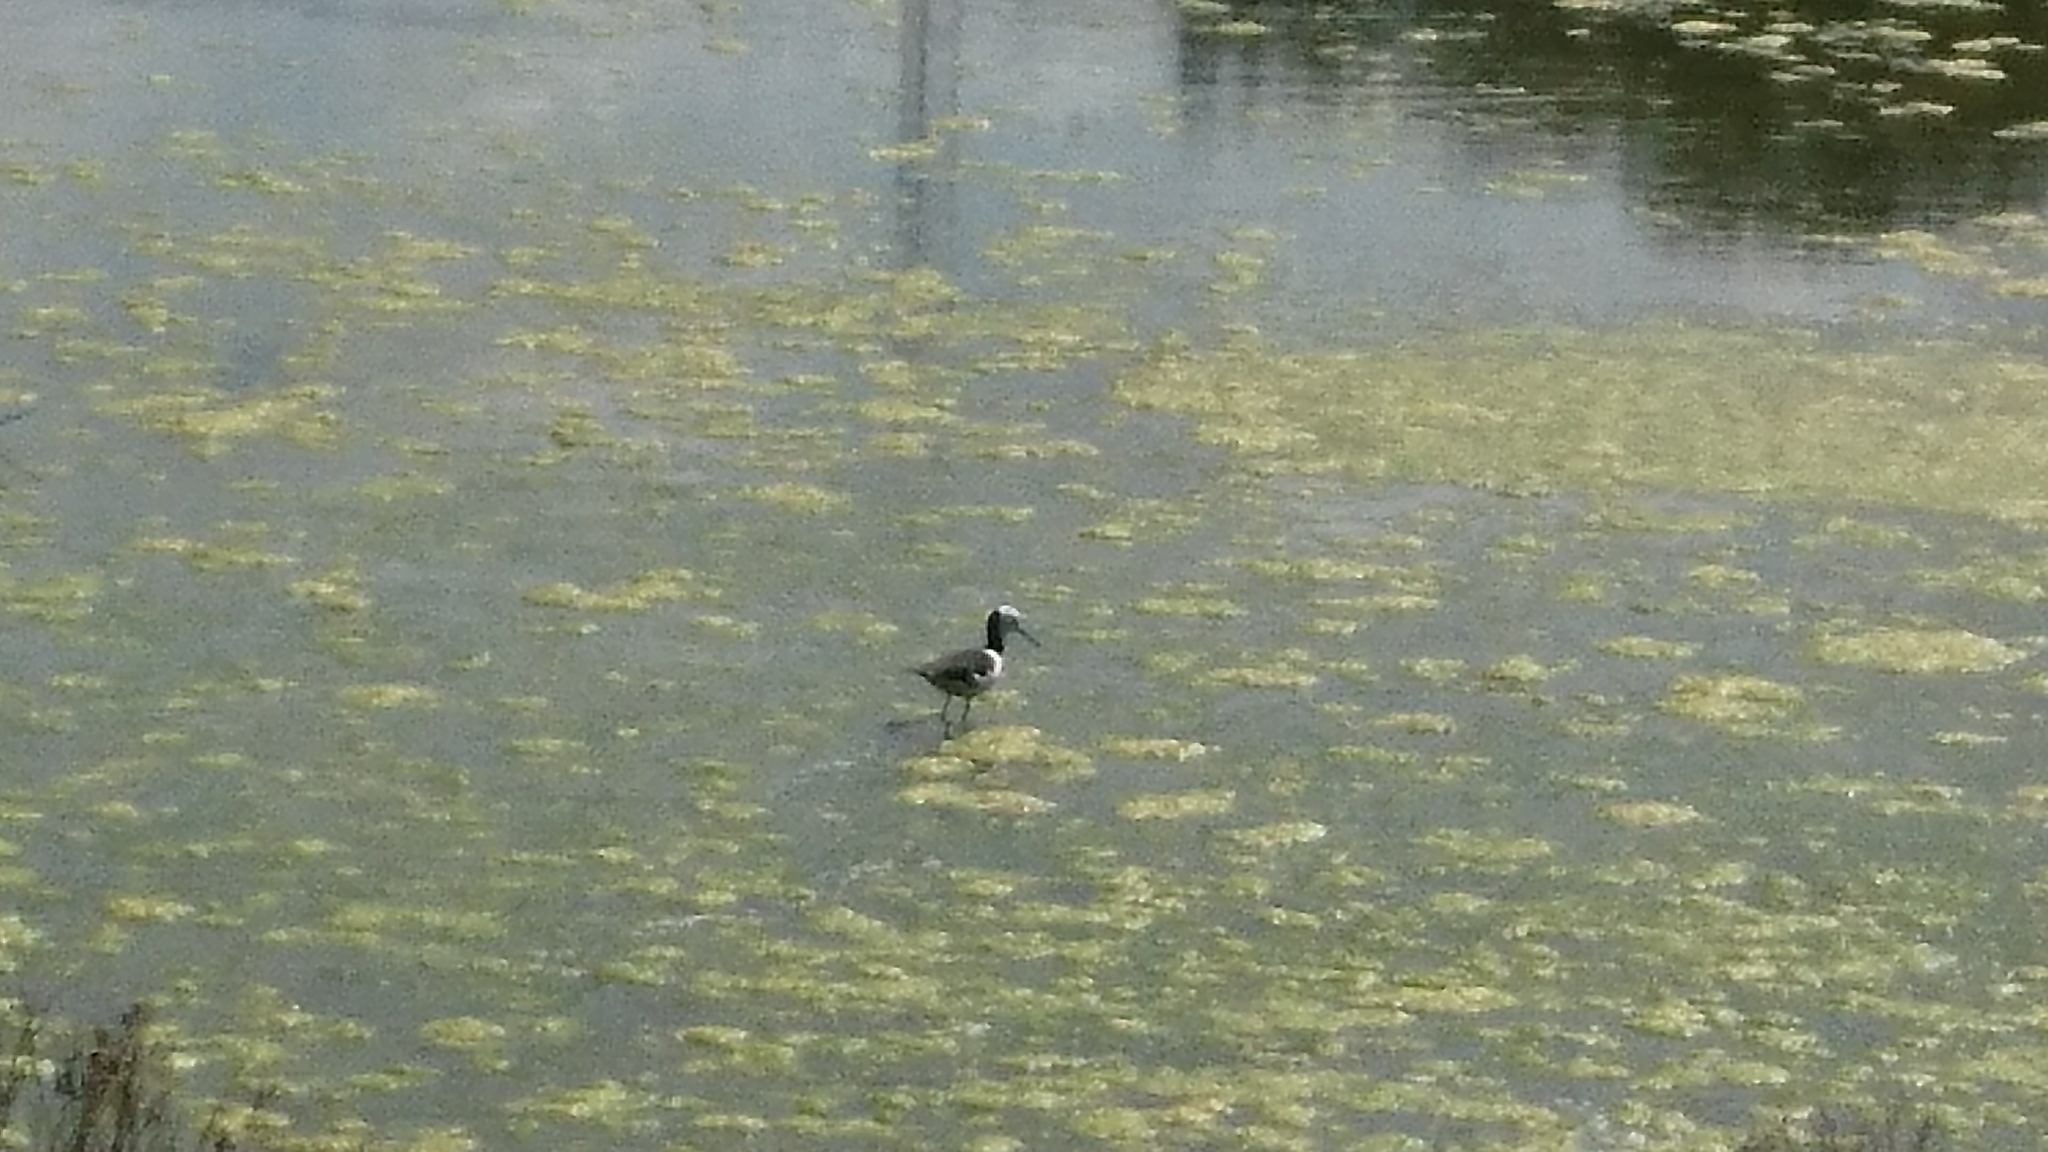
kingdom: Animalia
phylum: Chordata
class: Aves
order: Charadriiformes
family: Recurvirostridae
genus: Himantopus
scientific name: Himantopus leucocephalus
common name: White-headed stilt
